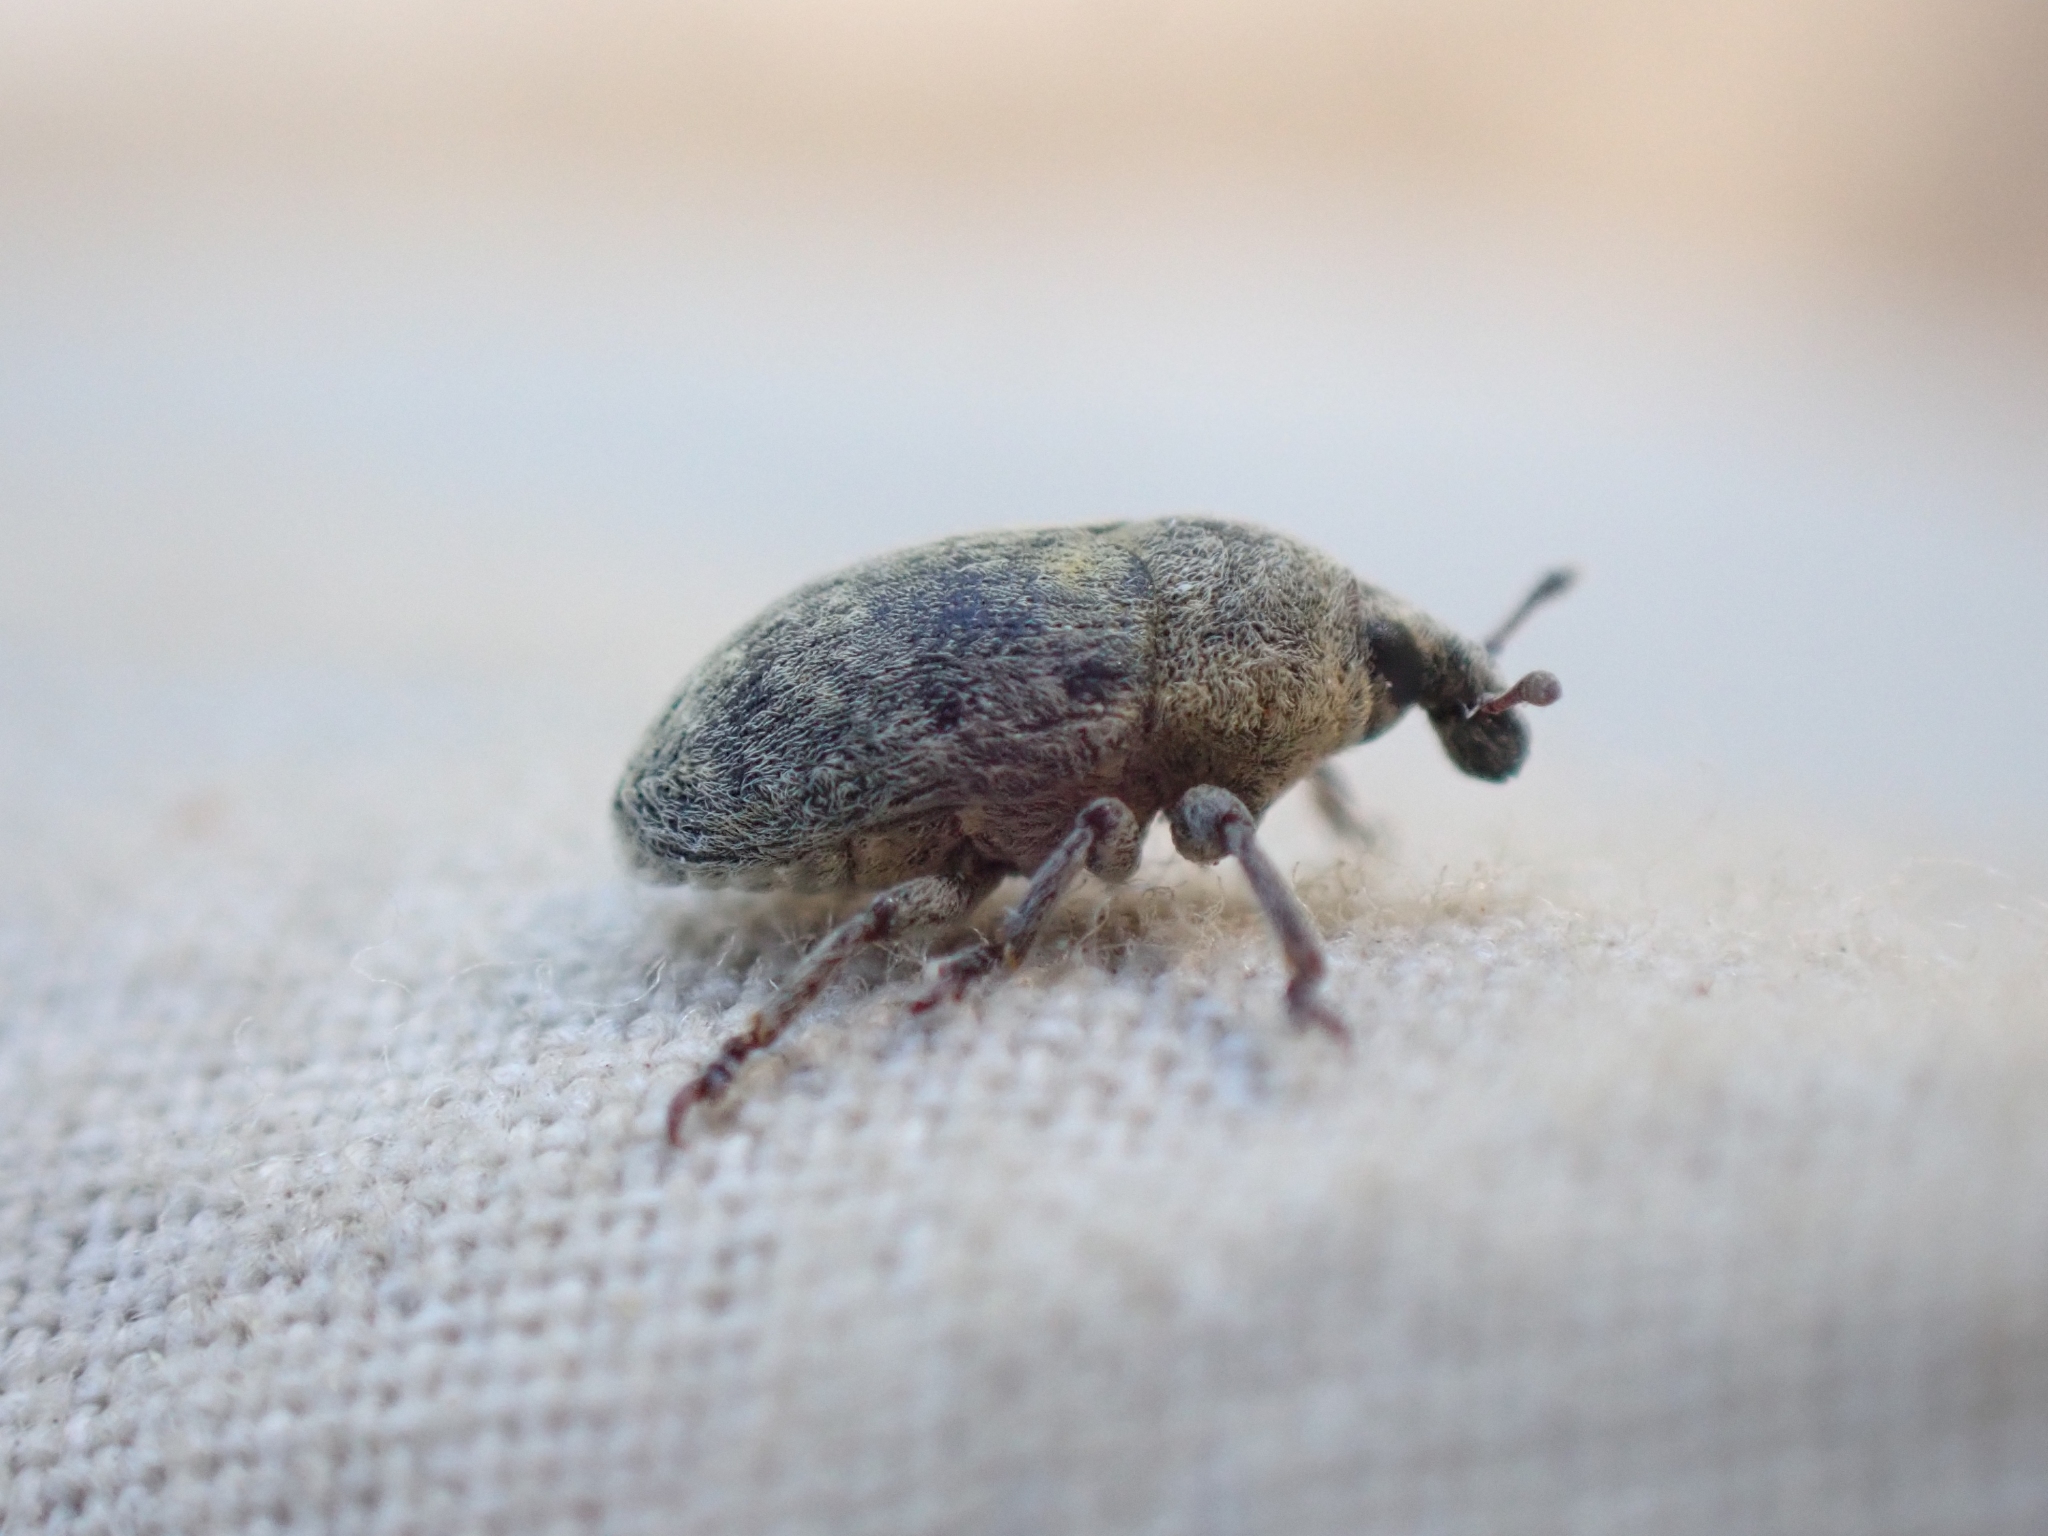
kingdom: Animalia
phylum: Arthropoda
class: Insecta
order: Coleoptera
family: Curculionidae
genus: Larinus
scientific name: Larinus minutus
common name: Weevil
